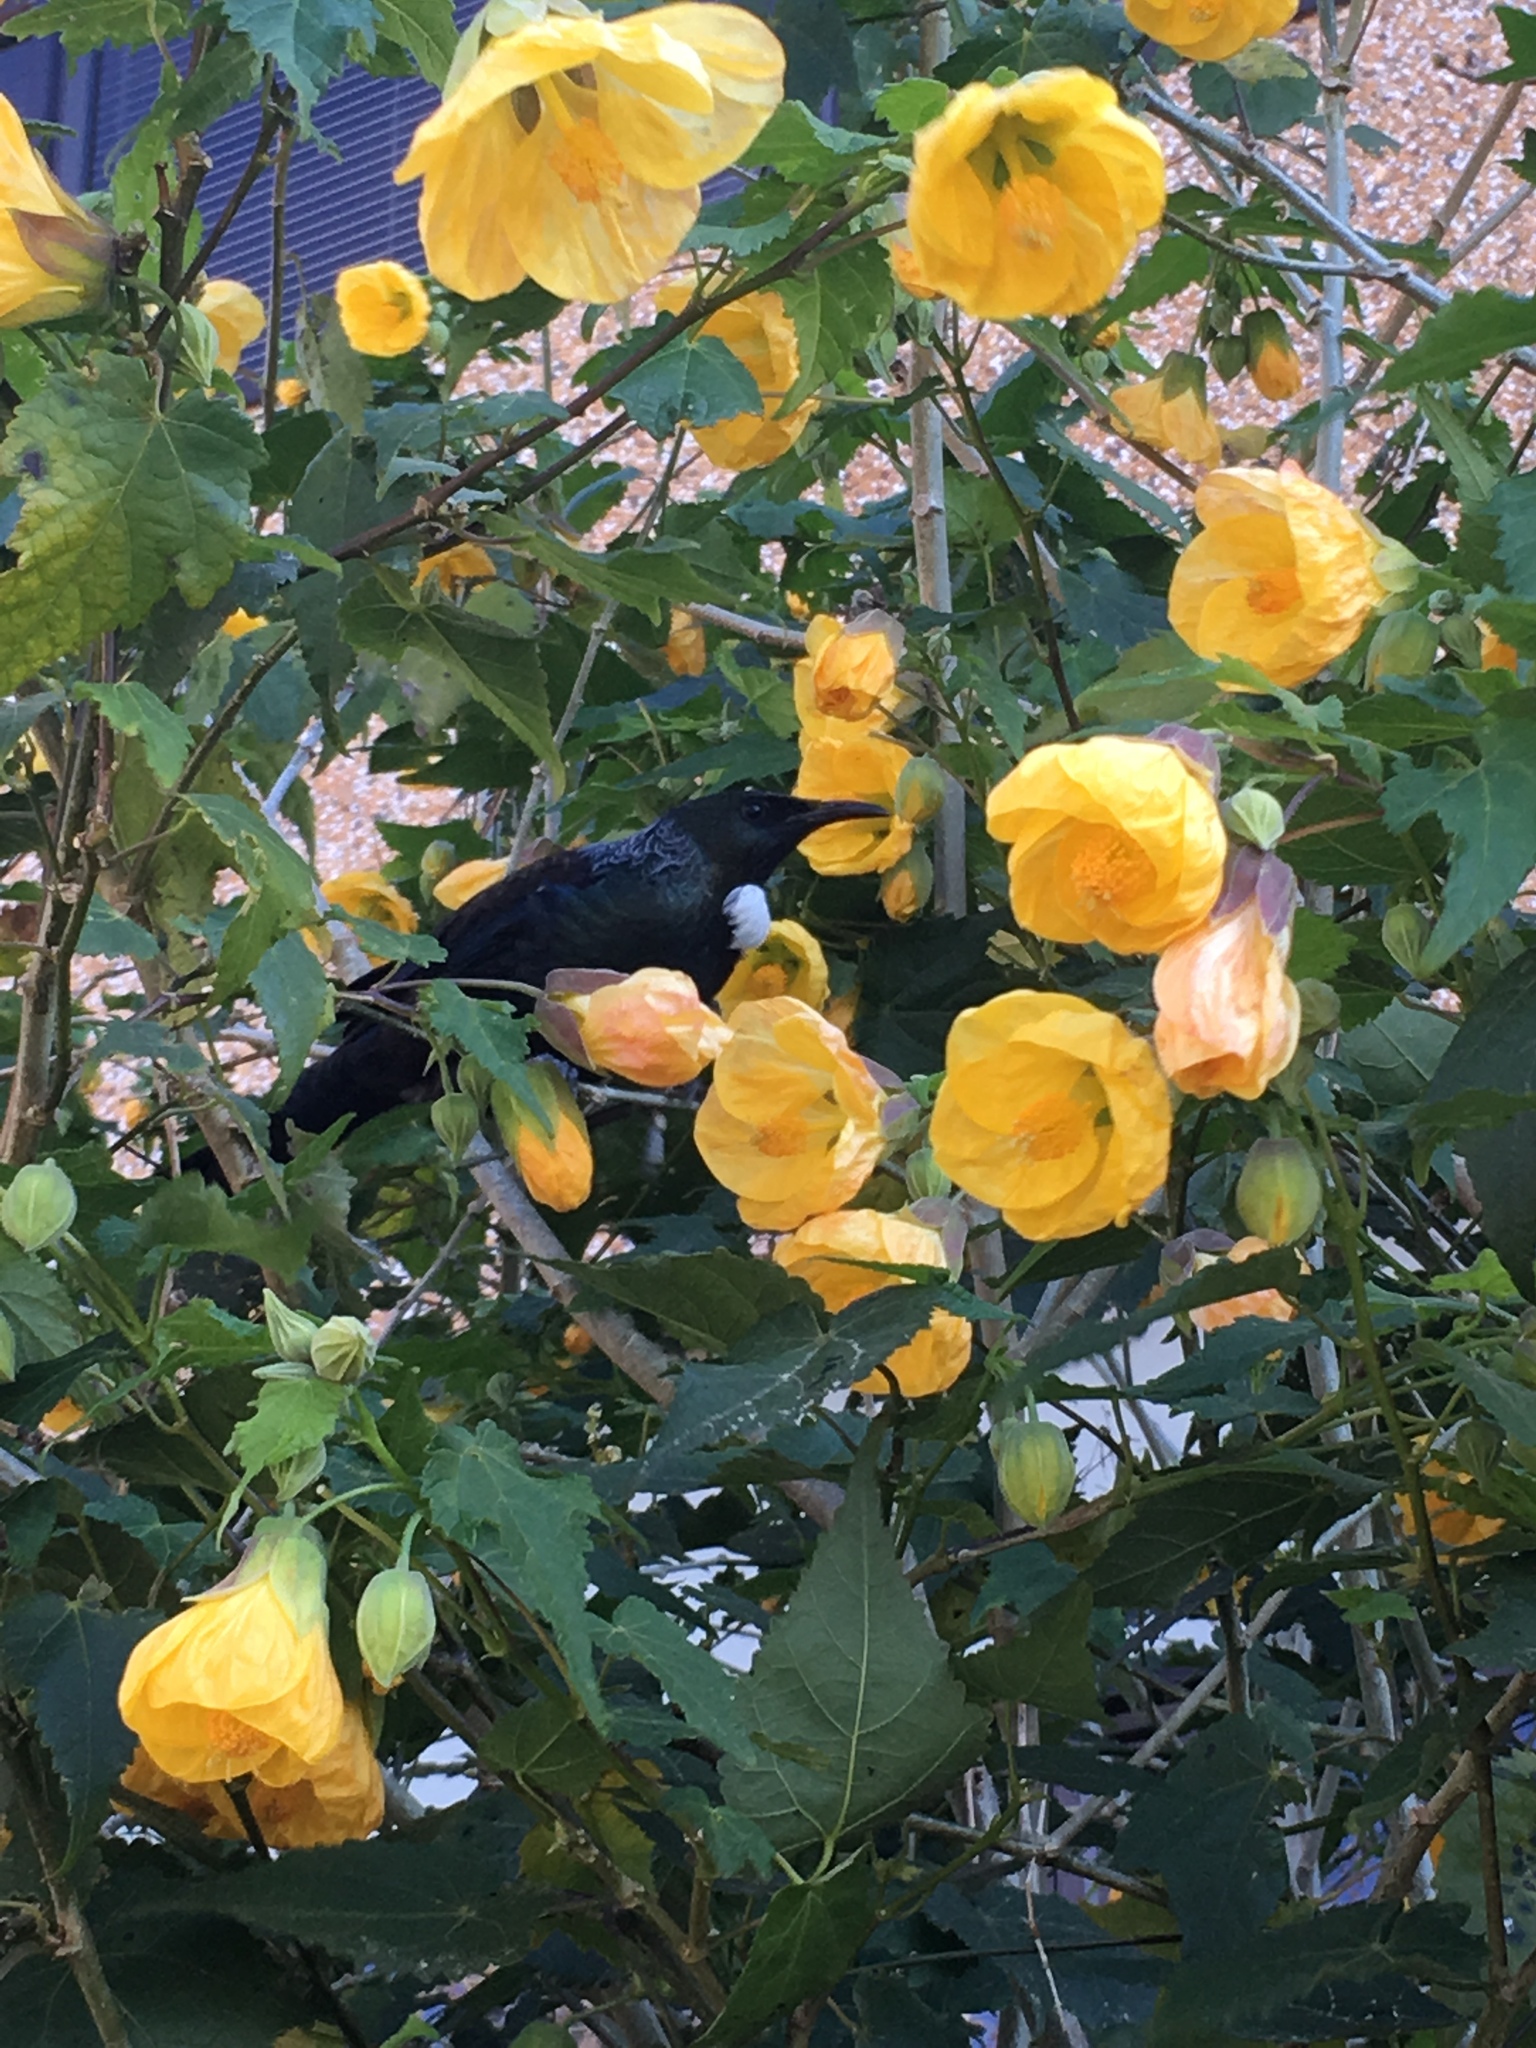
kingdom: Animalia
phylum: Chordata
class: Aves
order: Passeriformes
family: Meliphagidae
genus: Prosthemadera
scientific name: Prosthemadera novaeseelandiae
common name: Tui
